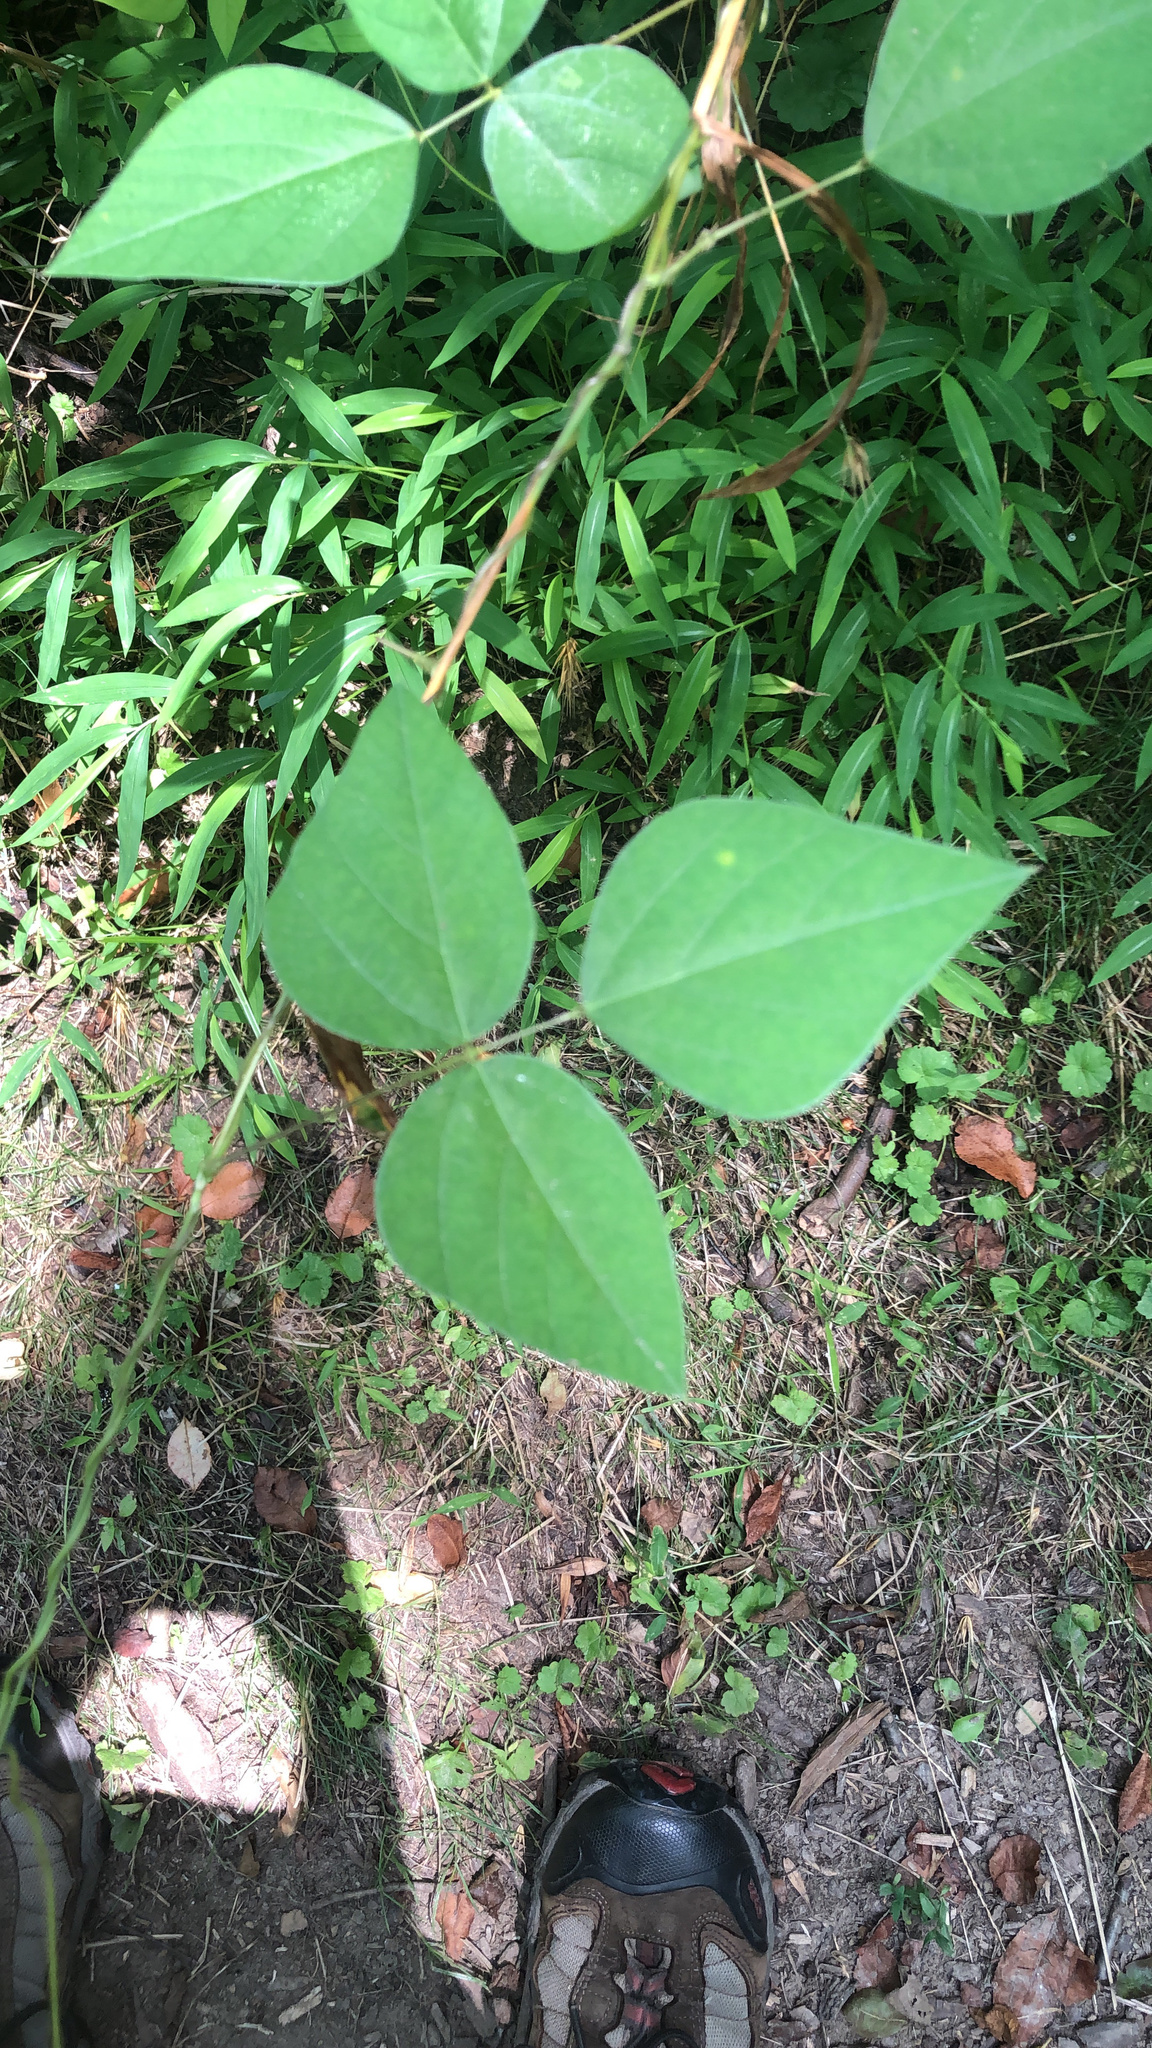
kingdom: Plantae
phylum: Tracheophyta
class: Magnoliopsida
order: Fabales
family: Fabaceae
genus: Amphicarpaea
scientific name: Amphicarpaea bracteata
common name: American hog peanut
